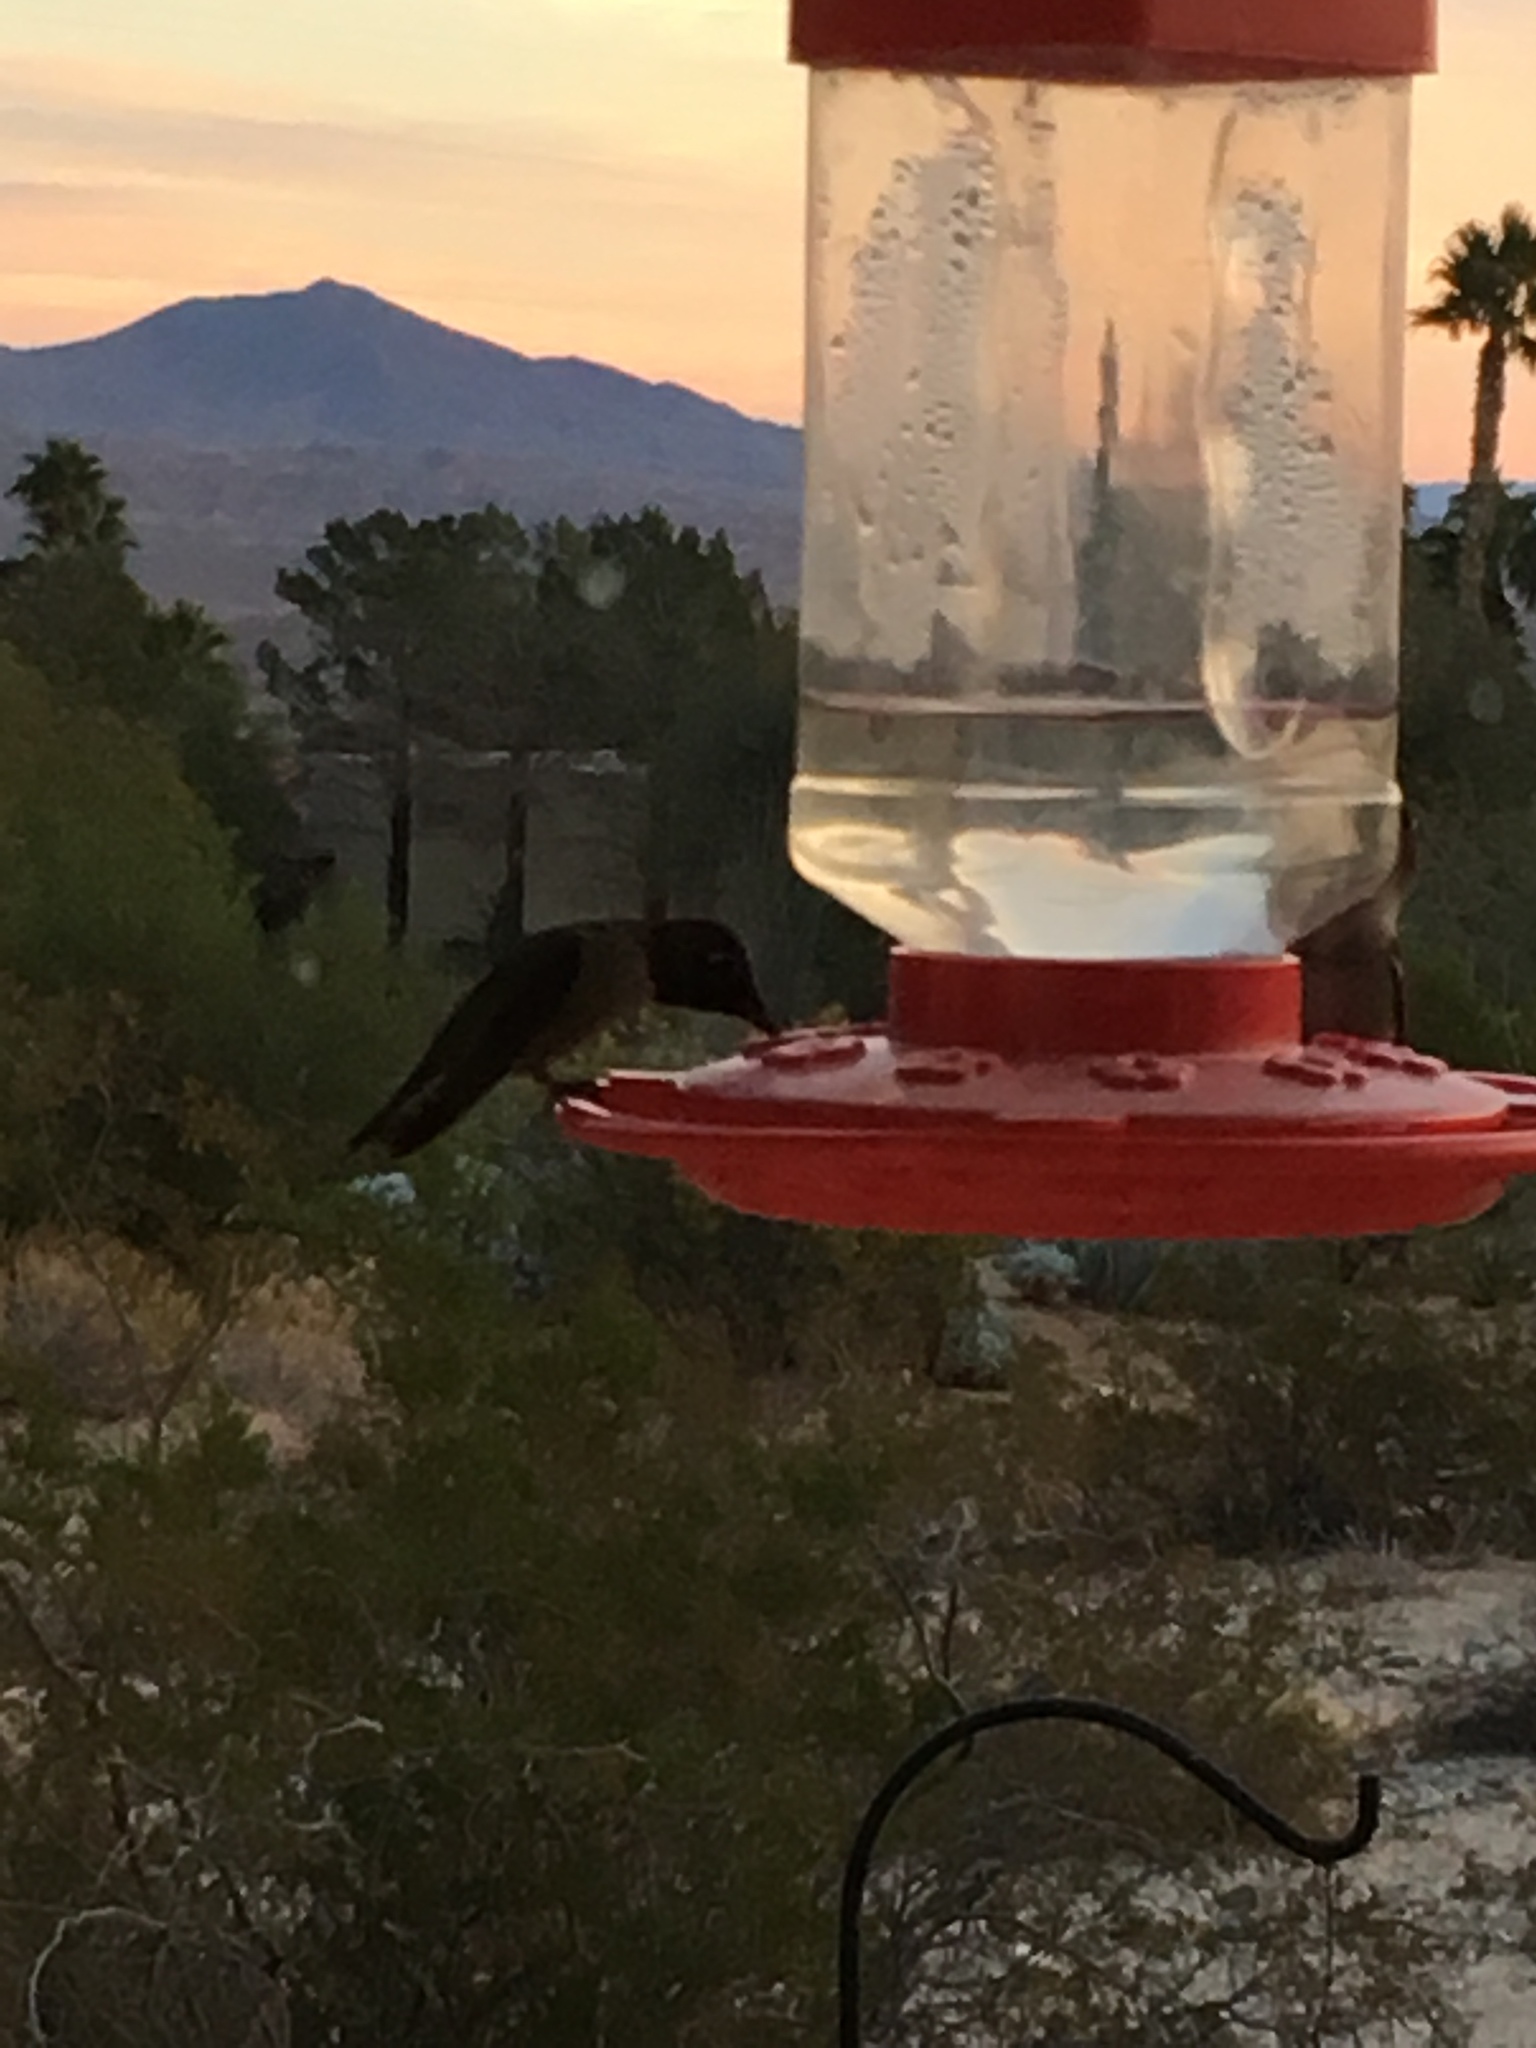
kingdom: Animalia
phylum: Chordata
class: Aves
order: Apodiformes
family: Trochilidae
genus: Calypte
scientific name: Calypte anna
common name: Anna's hummingbird
